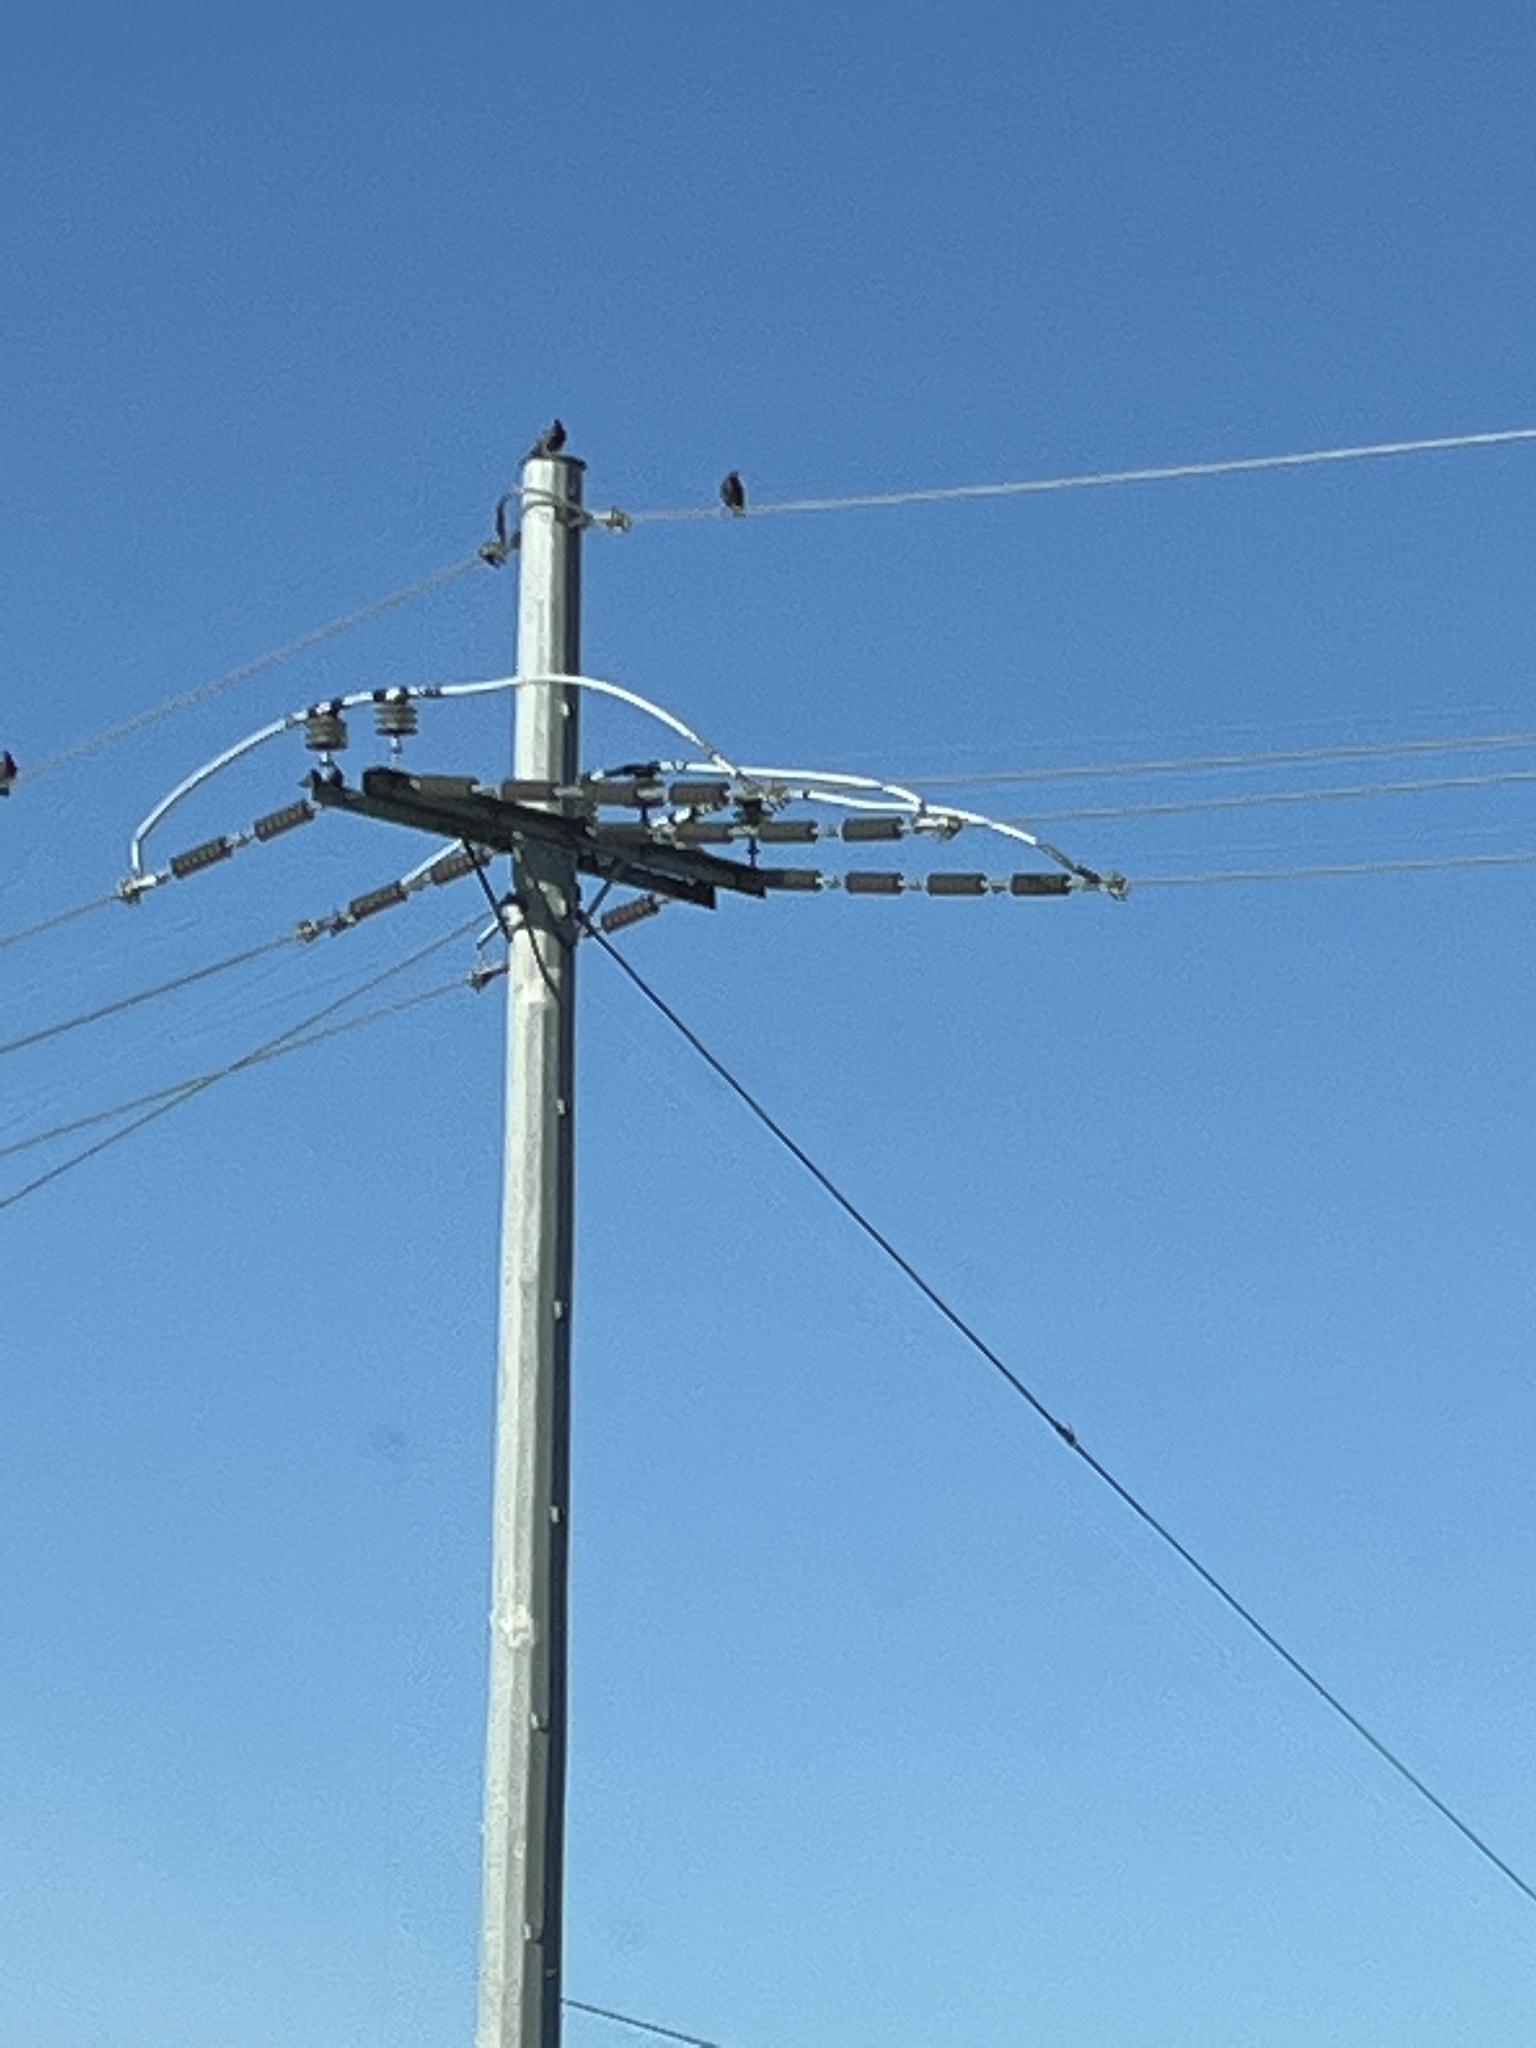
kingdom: Animalia
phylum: Chordata
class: Aves
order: Columbiformes
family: Columbidae
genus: Columba
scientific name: Columba livia
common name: Rock pigeon
